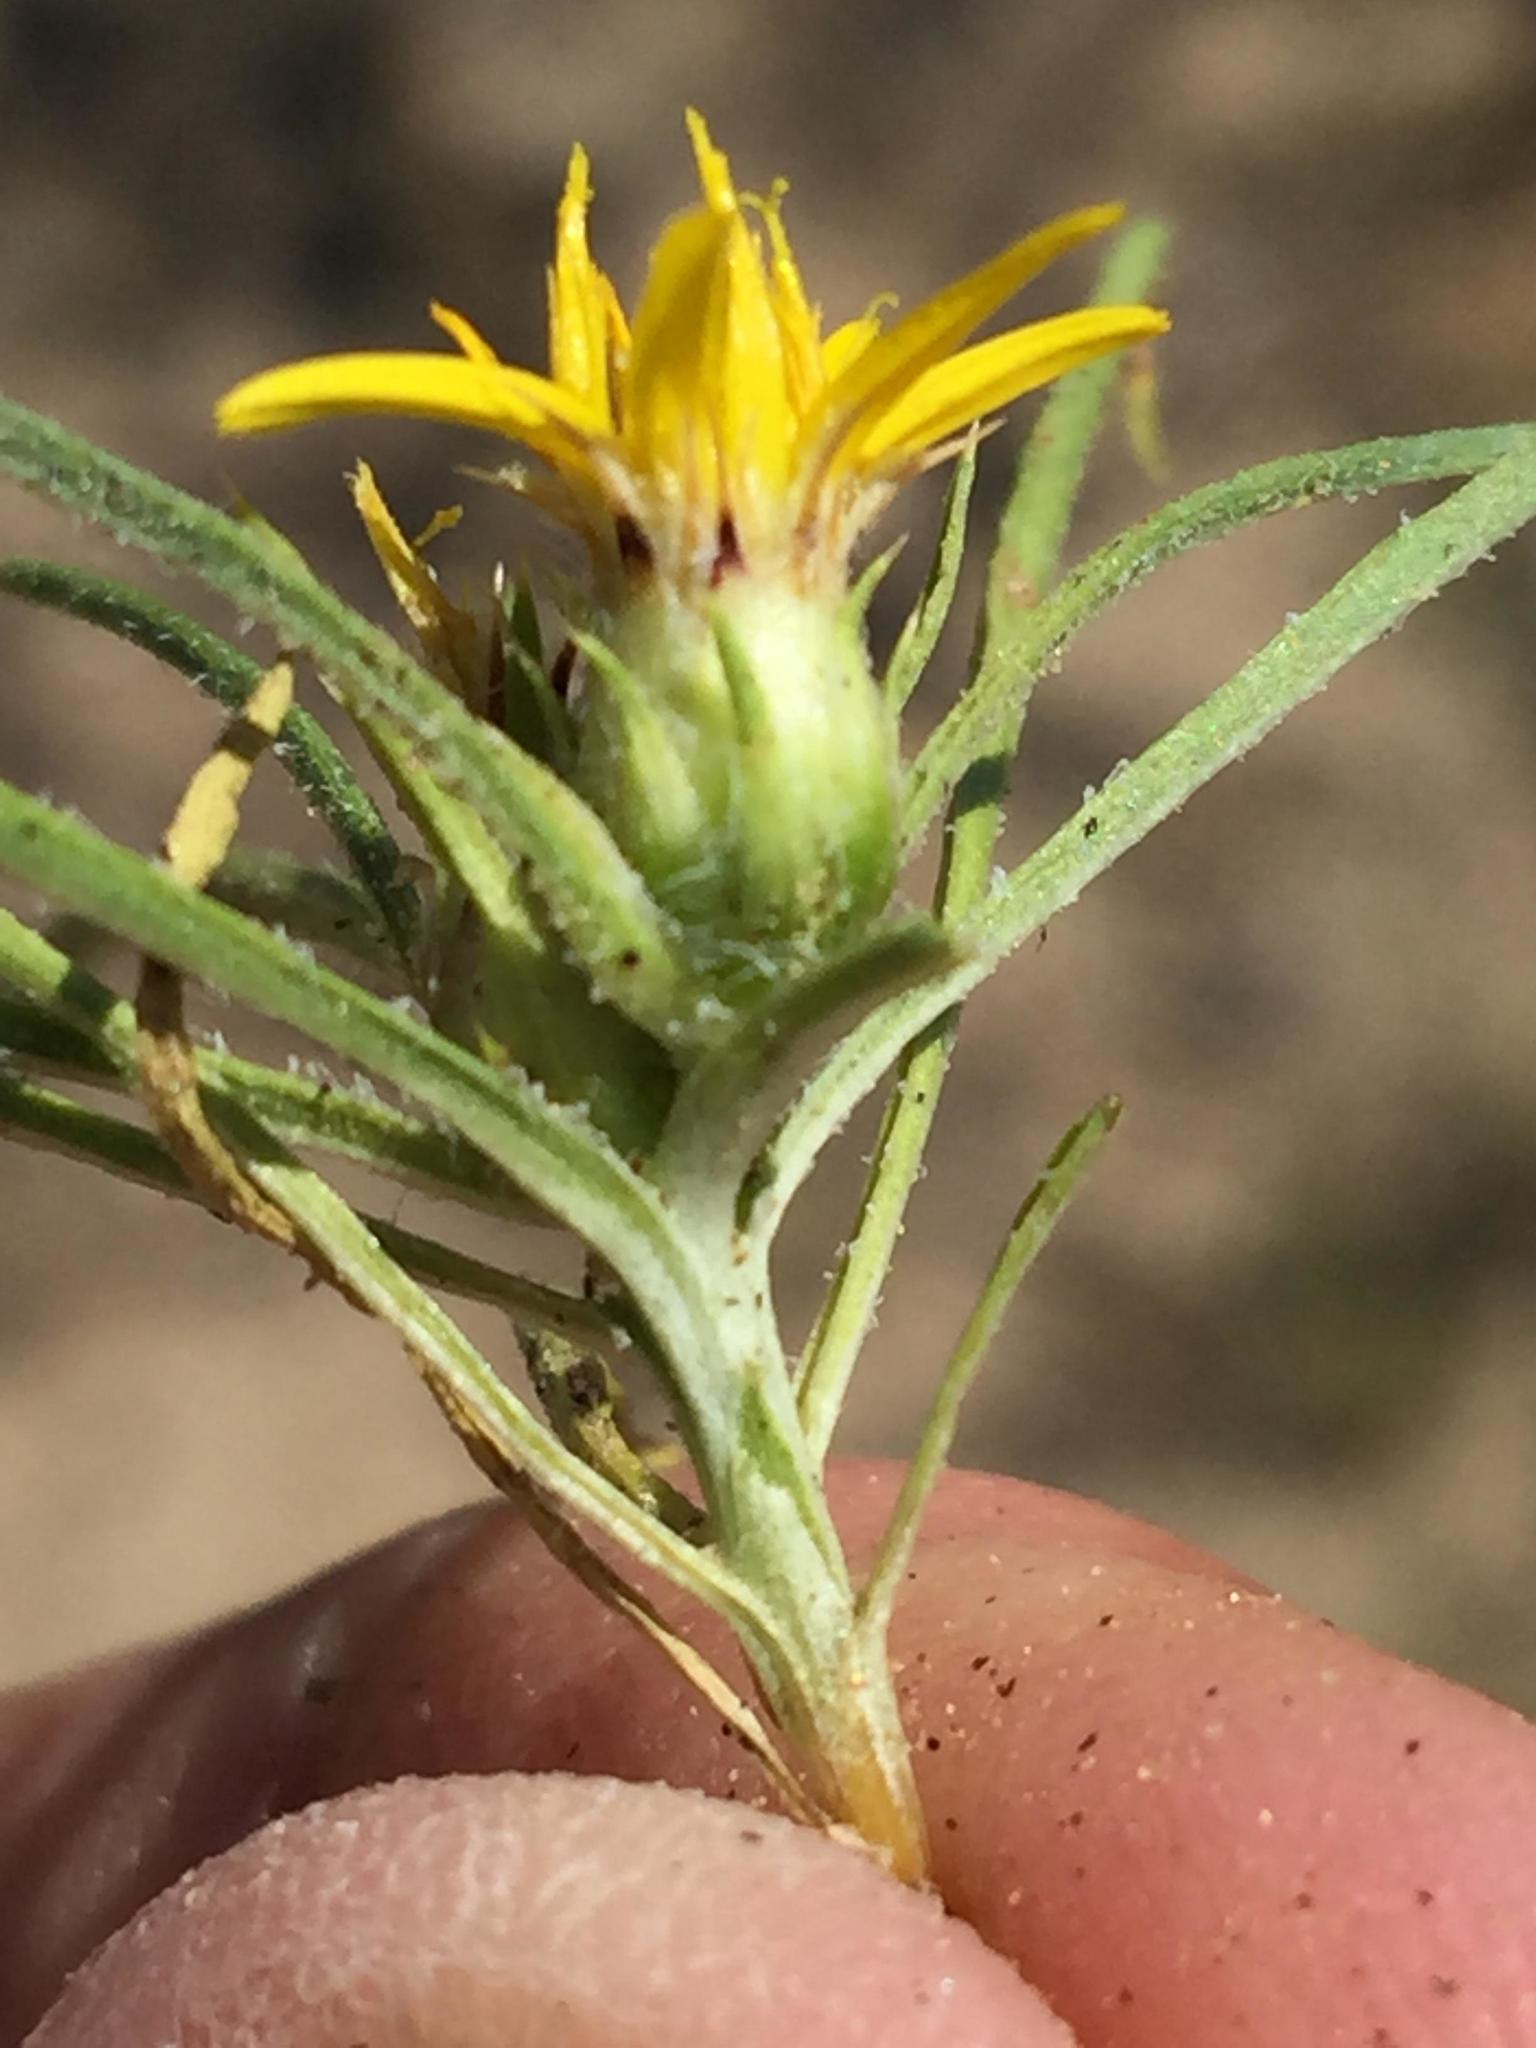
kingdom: Plantae
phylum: Tracheophyta
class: Magnoliopsida
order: Asterales
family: Asteraceae
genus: Geigeria
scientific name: Geigeria ornativa
